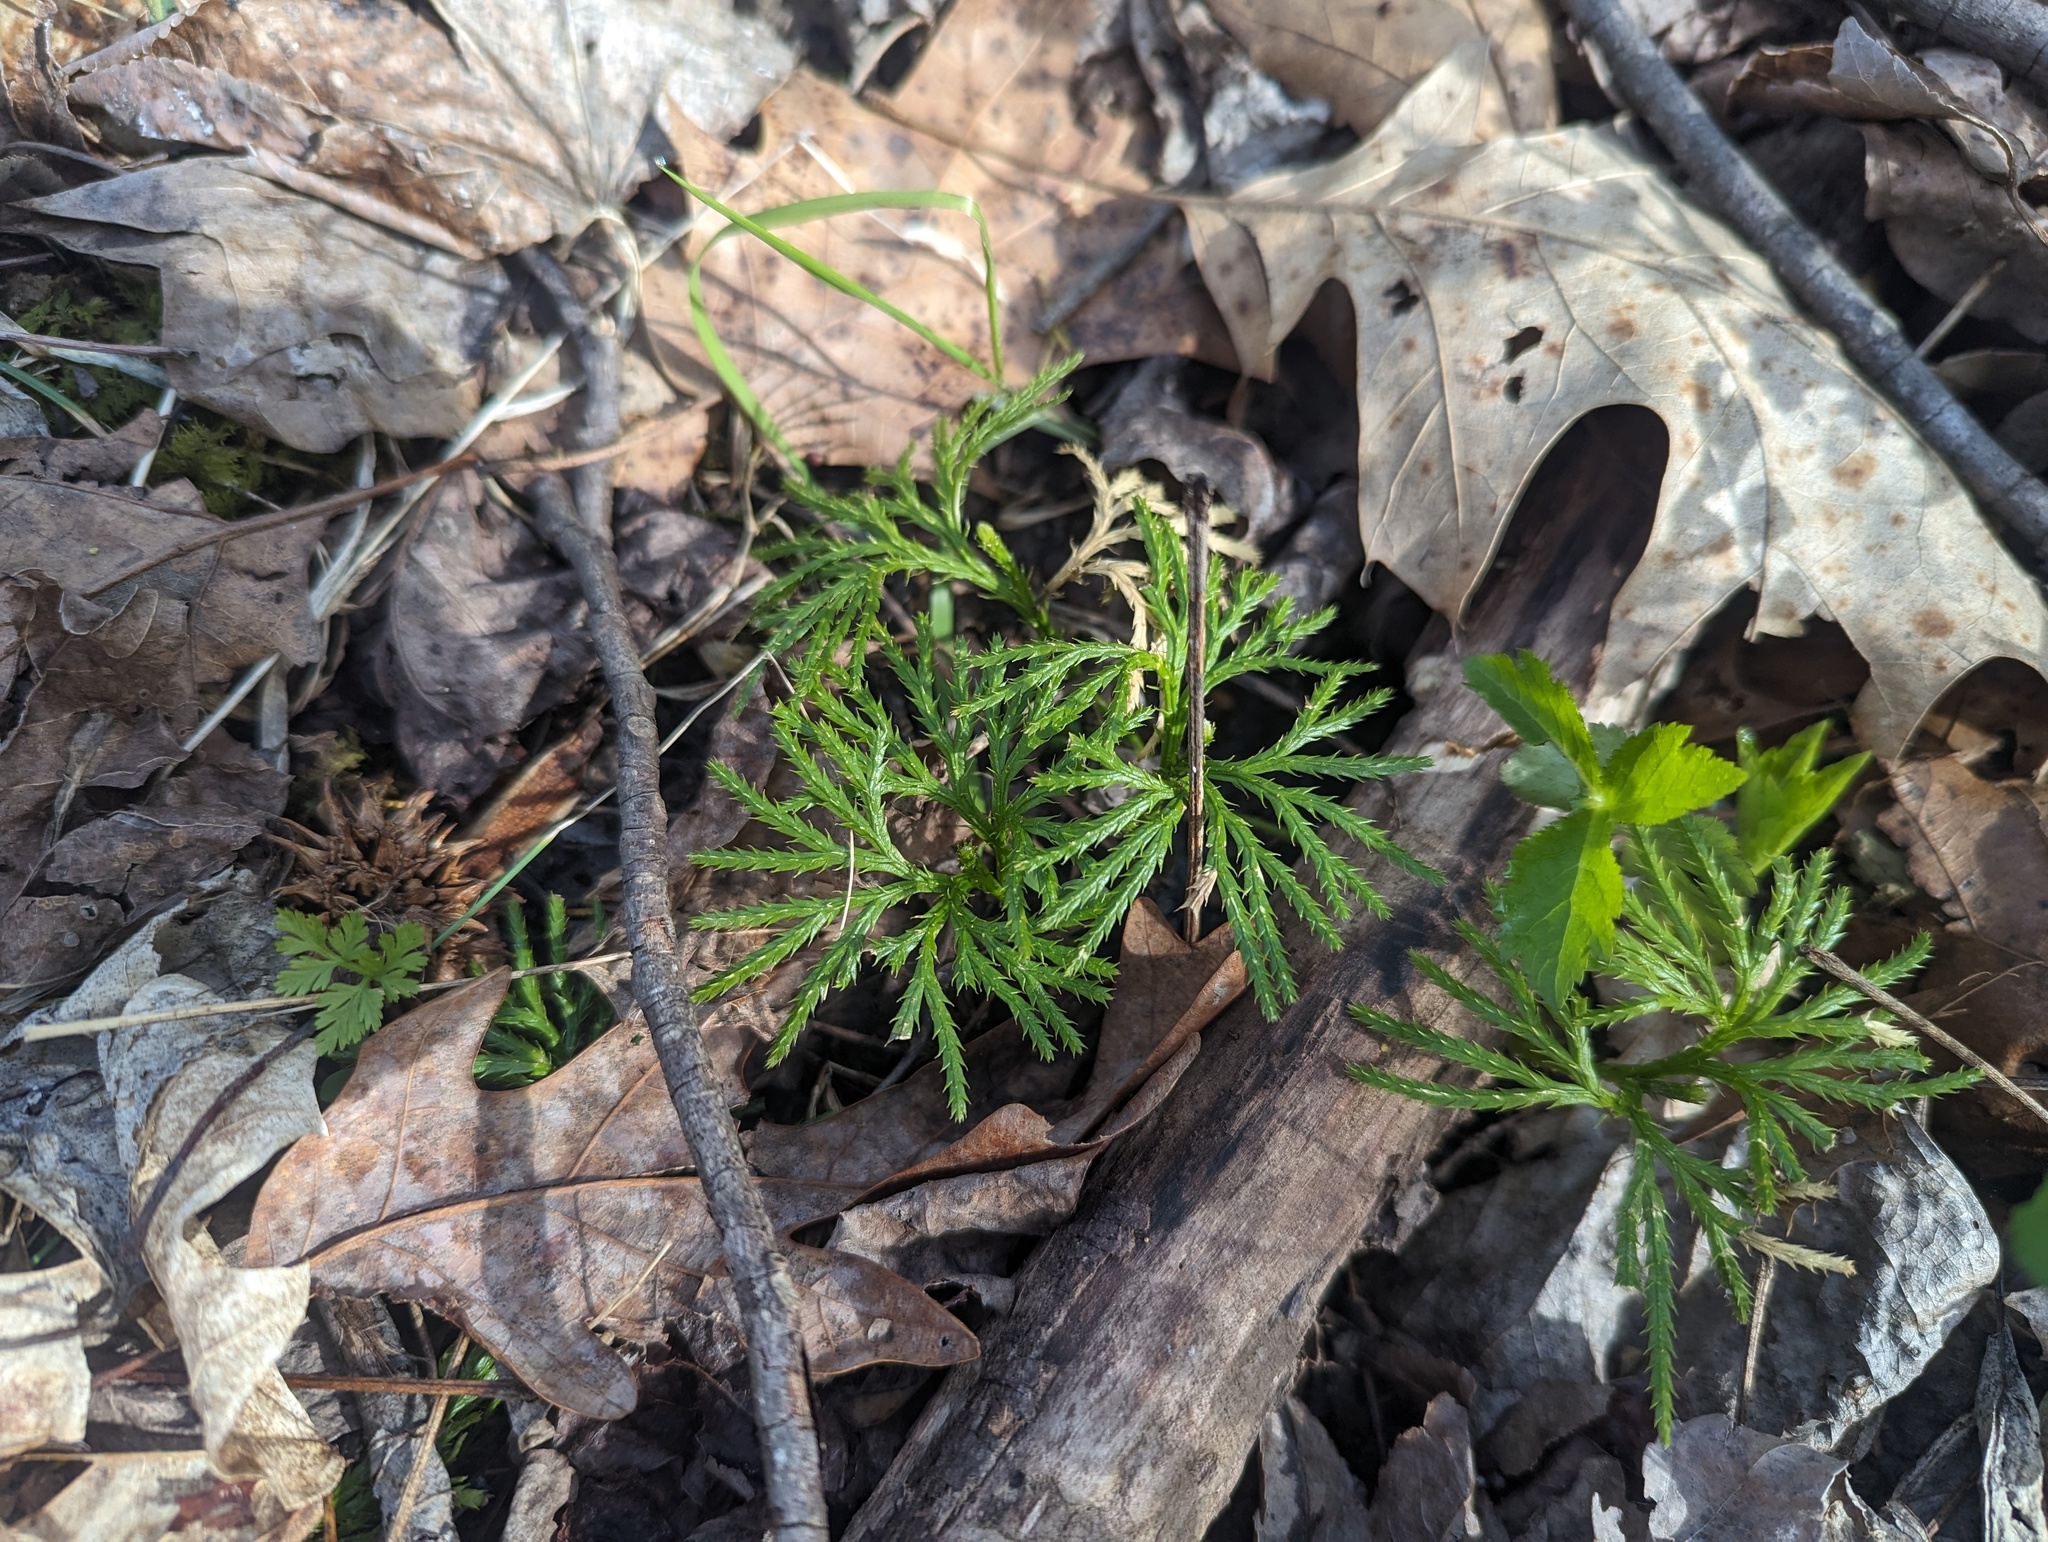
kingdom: Plantae
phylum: Tracheophyta
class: Lycopodiopsida
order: Lycopodiales
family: Lycopodiaceae
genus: Diphasiastrum
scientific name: Diphasiastrum digitatum
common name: Southern running-pine
